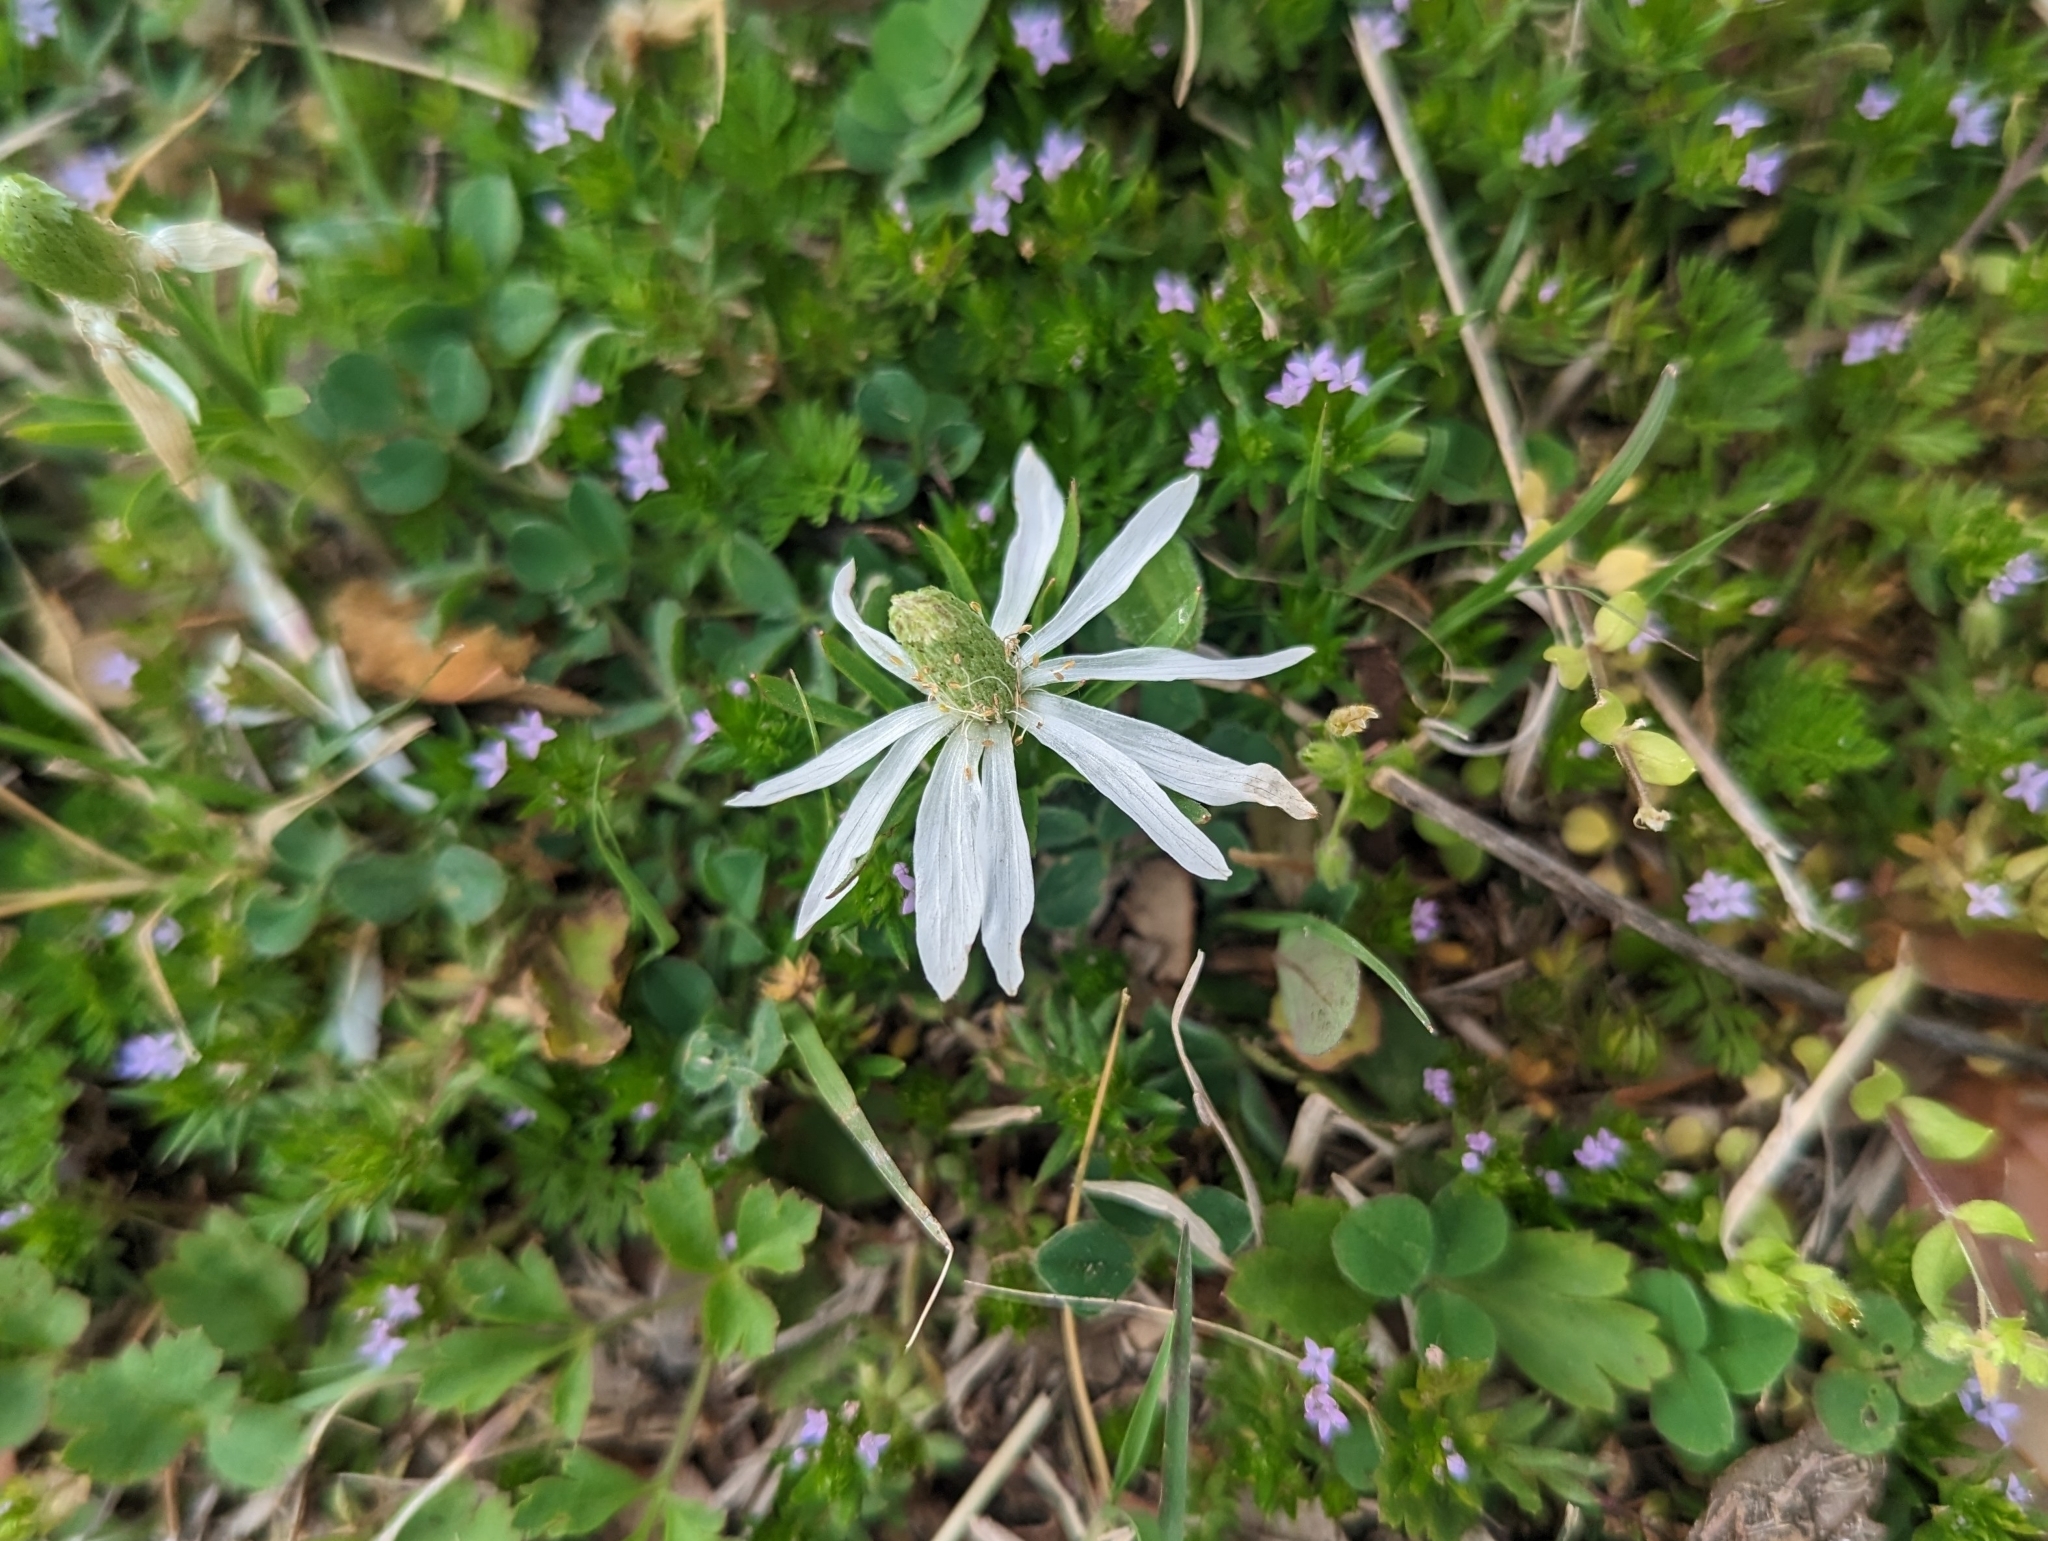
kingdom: Plantae
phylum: Tracheophyta
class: Magnoliopsida
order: Ranunculales
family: Ranunculaceae
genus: Anemone
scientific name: Anemone berlandieri
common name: Ten-petal anemone
